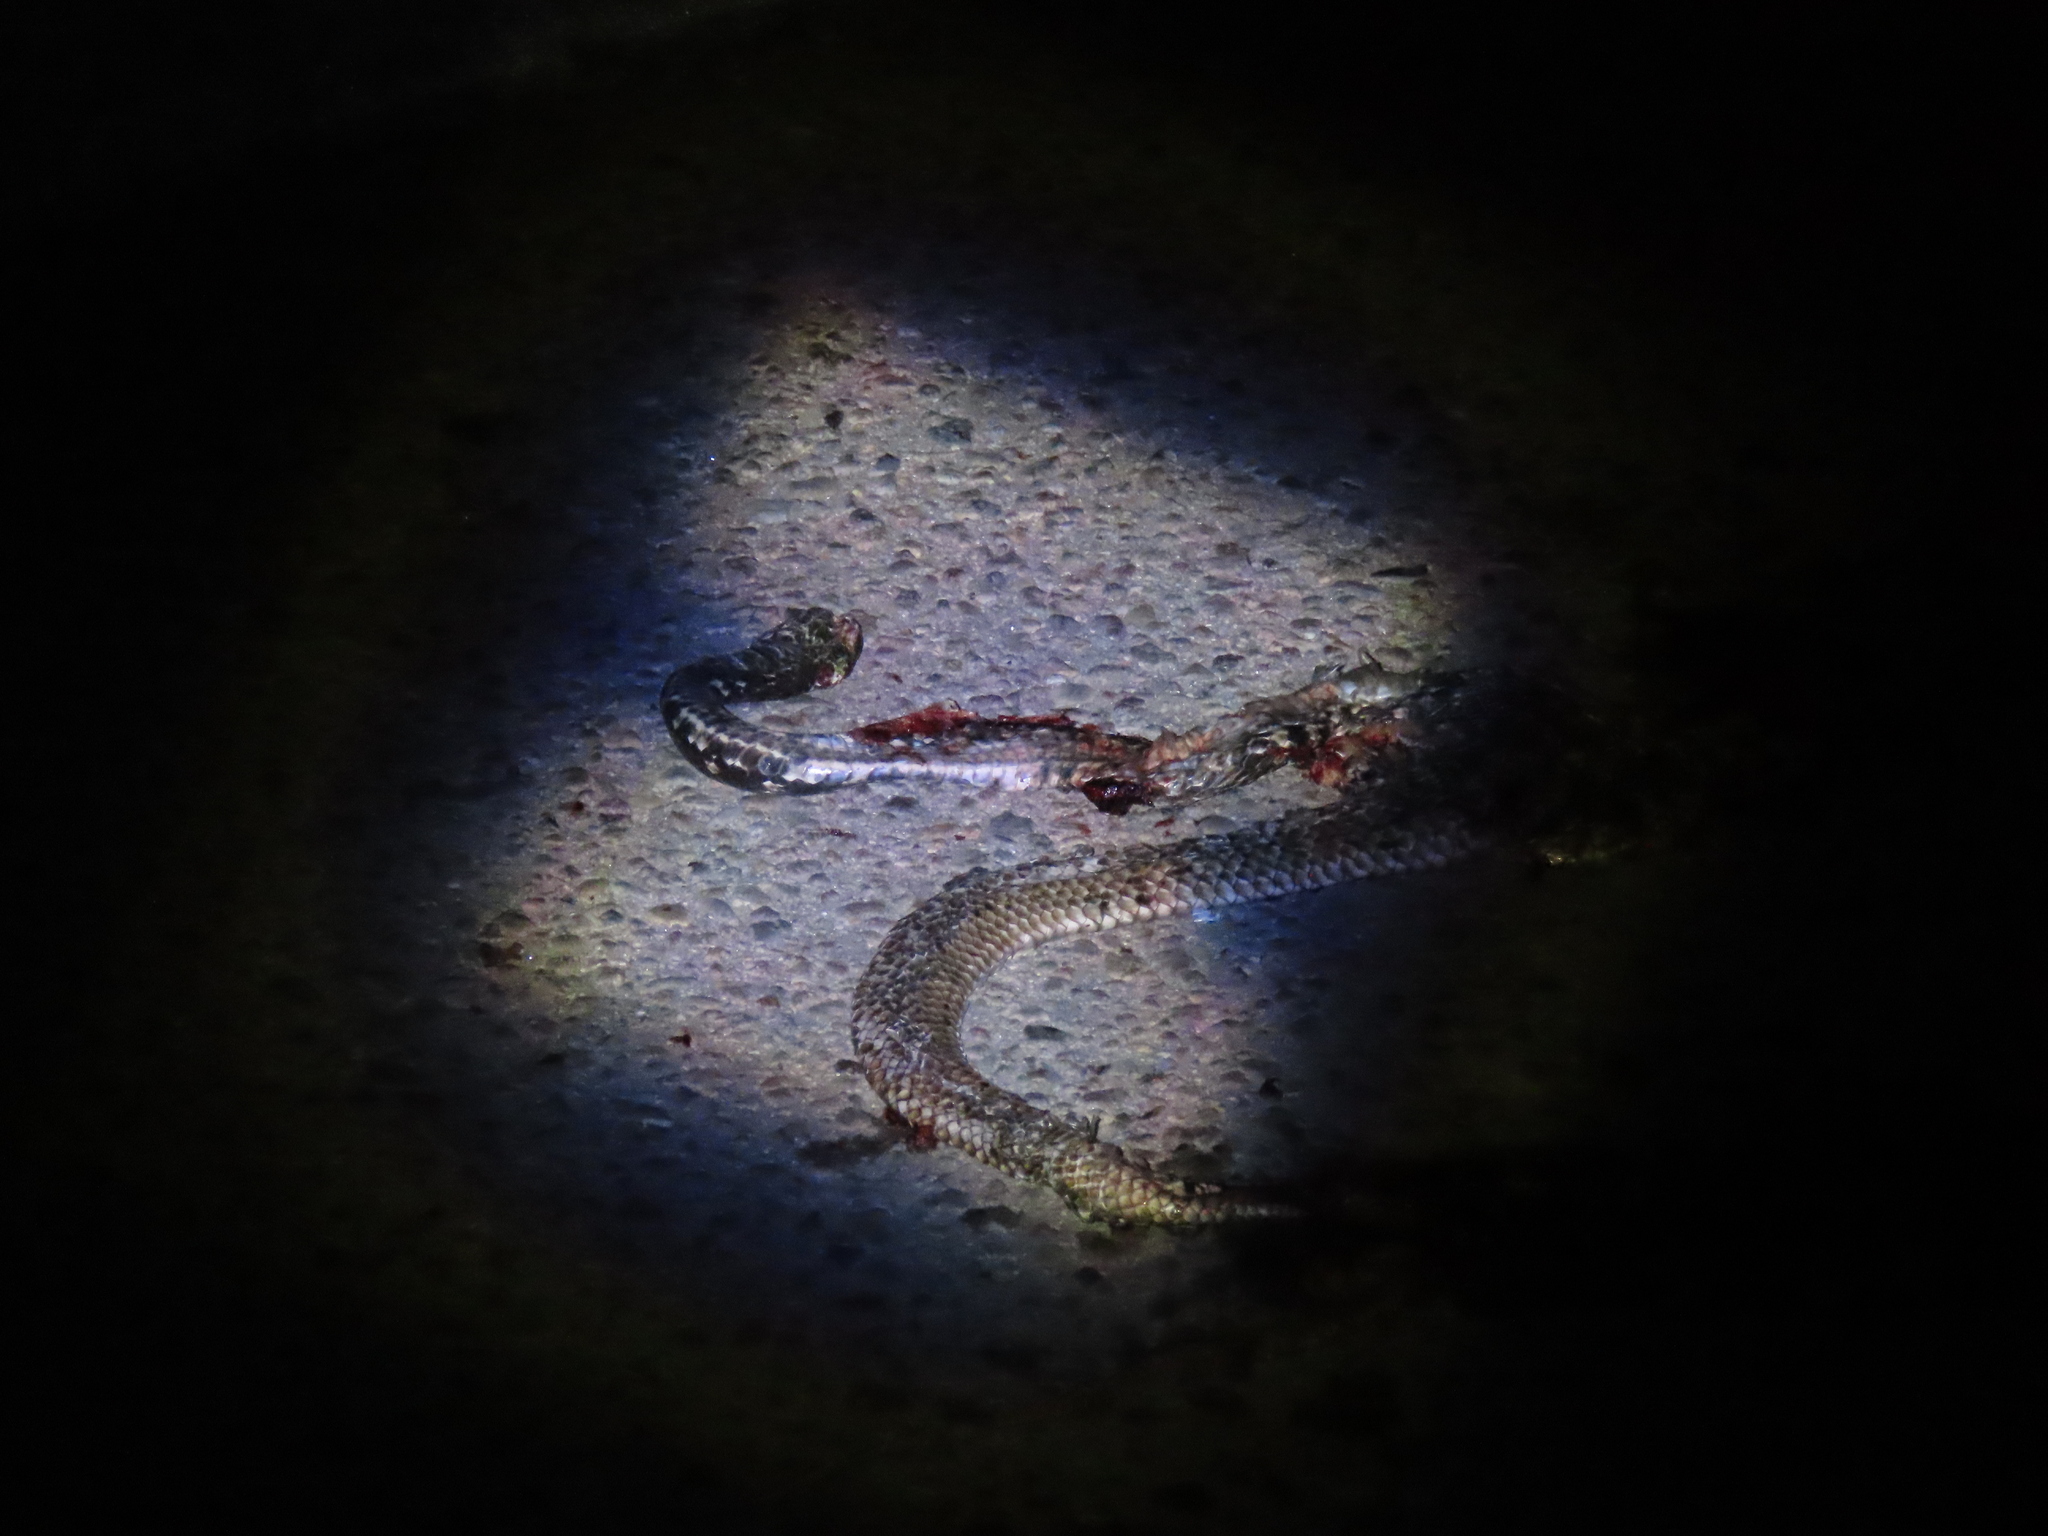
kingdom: Animalia
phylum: Chordata
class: Squamata
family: Colubridae
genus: Masticophis
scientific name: Masticophis flagellum
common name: Coachwhip
